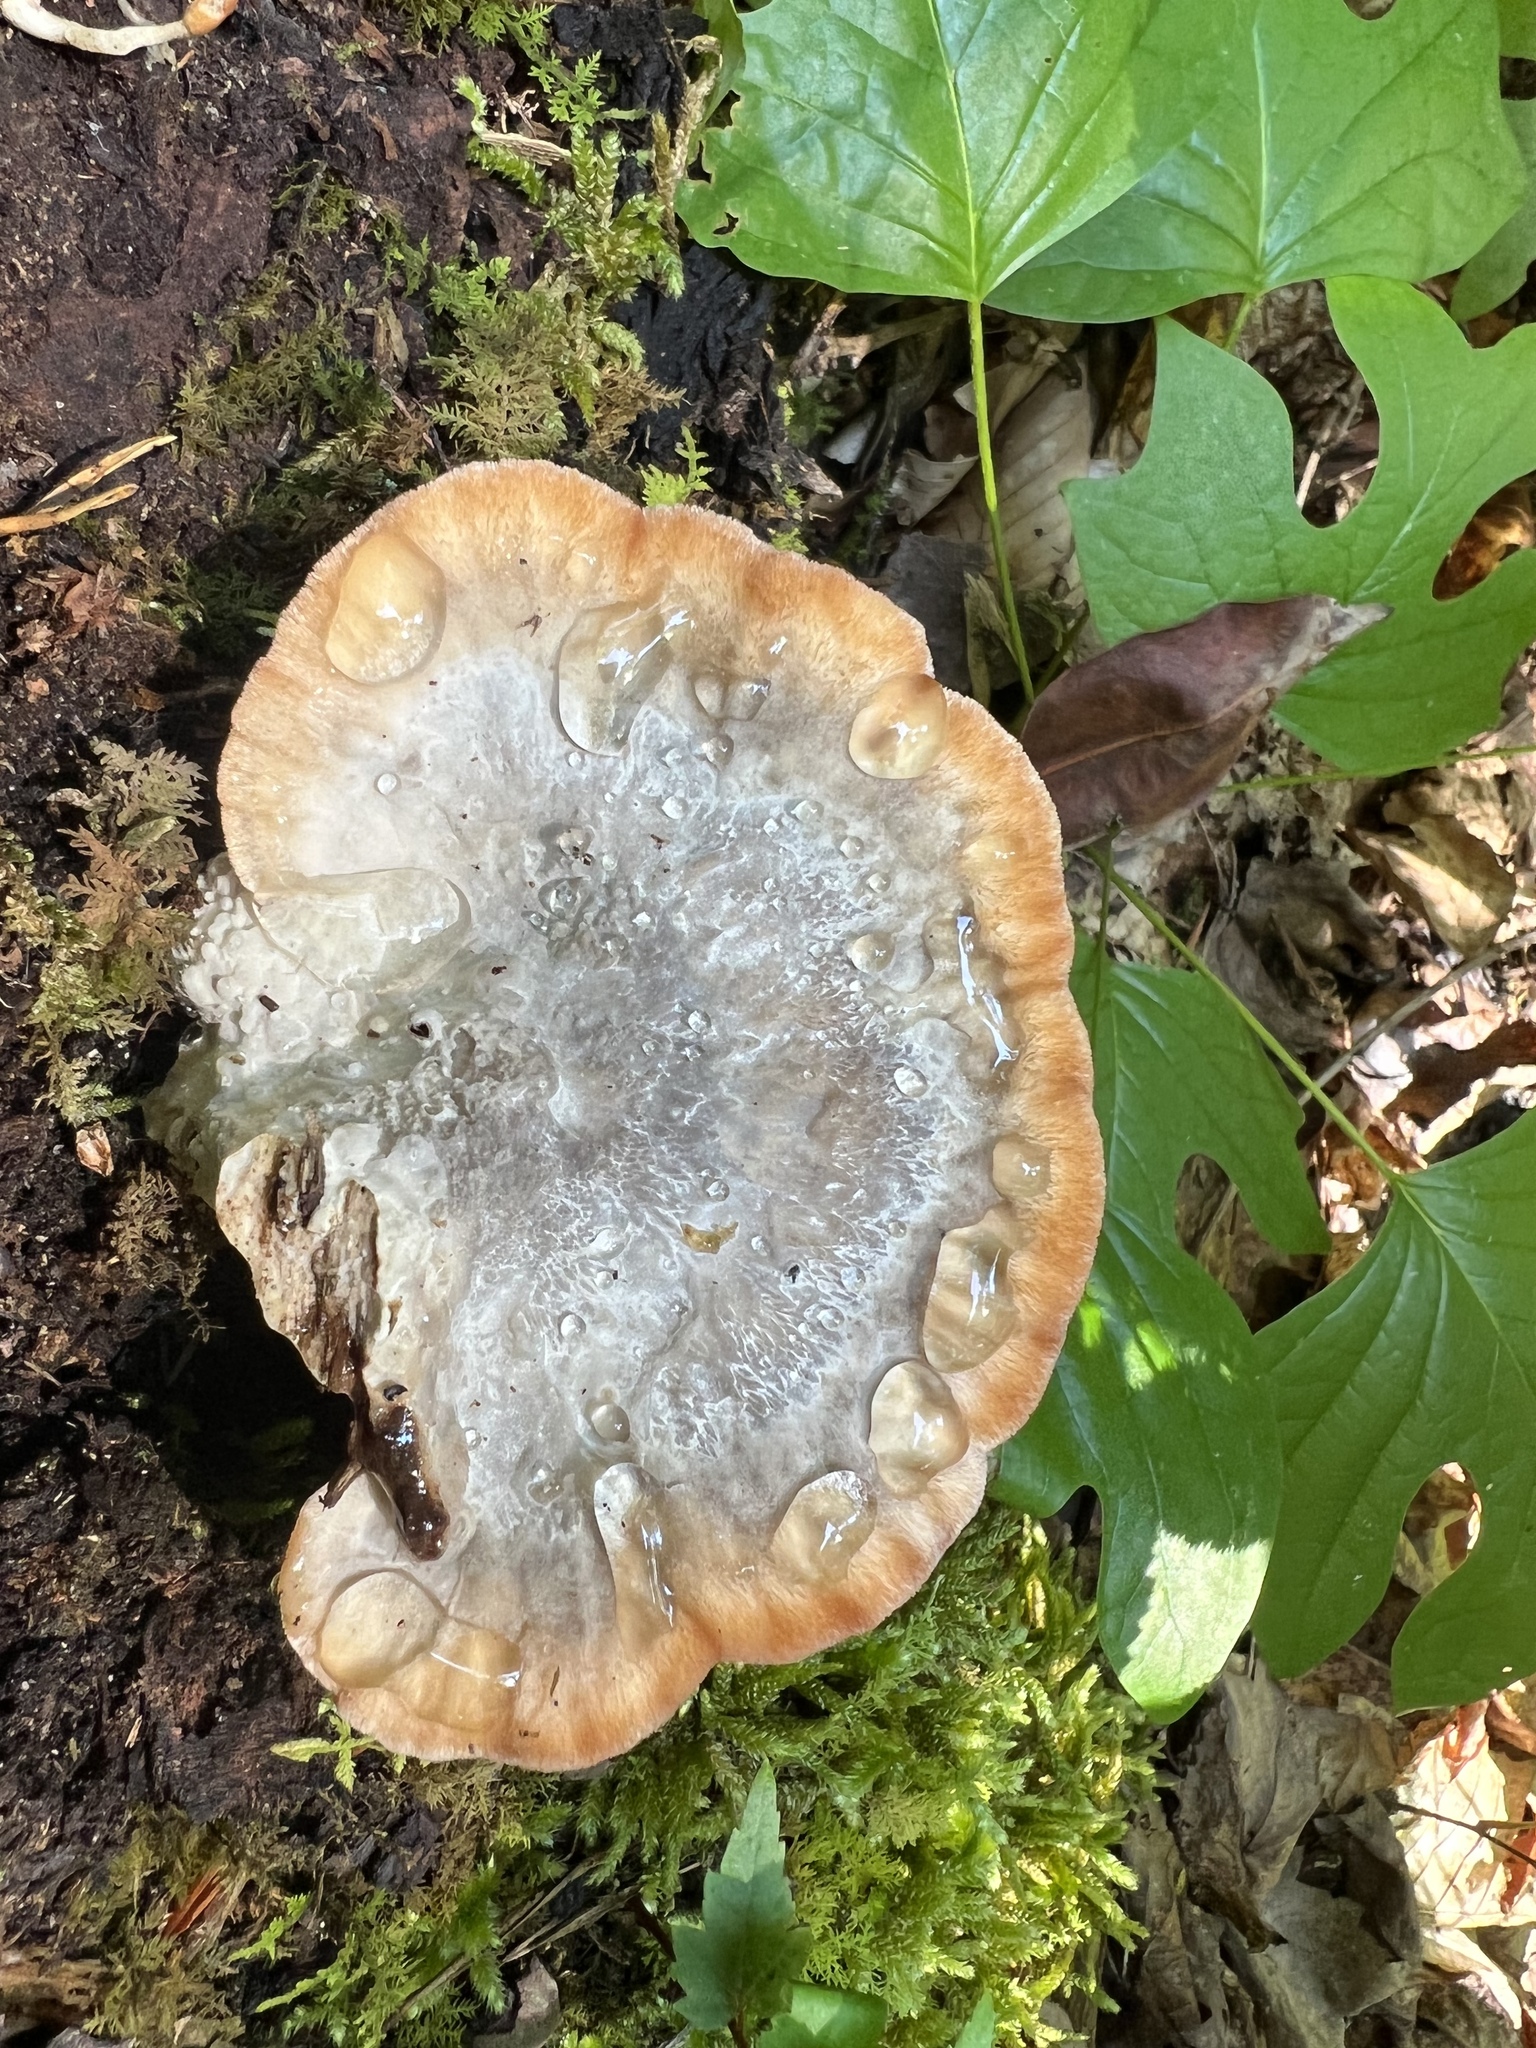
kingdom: Fungi
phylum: Basidiomycota
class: Agaricomycetes
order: Polyporales
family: Fomitopsidaceae
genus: Niveoporofomes
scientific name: Niveoporofomes spraguei
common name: Green cheese polypore
